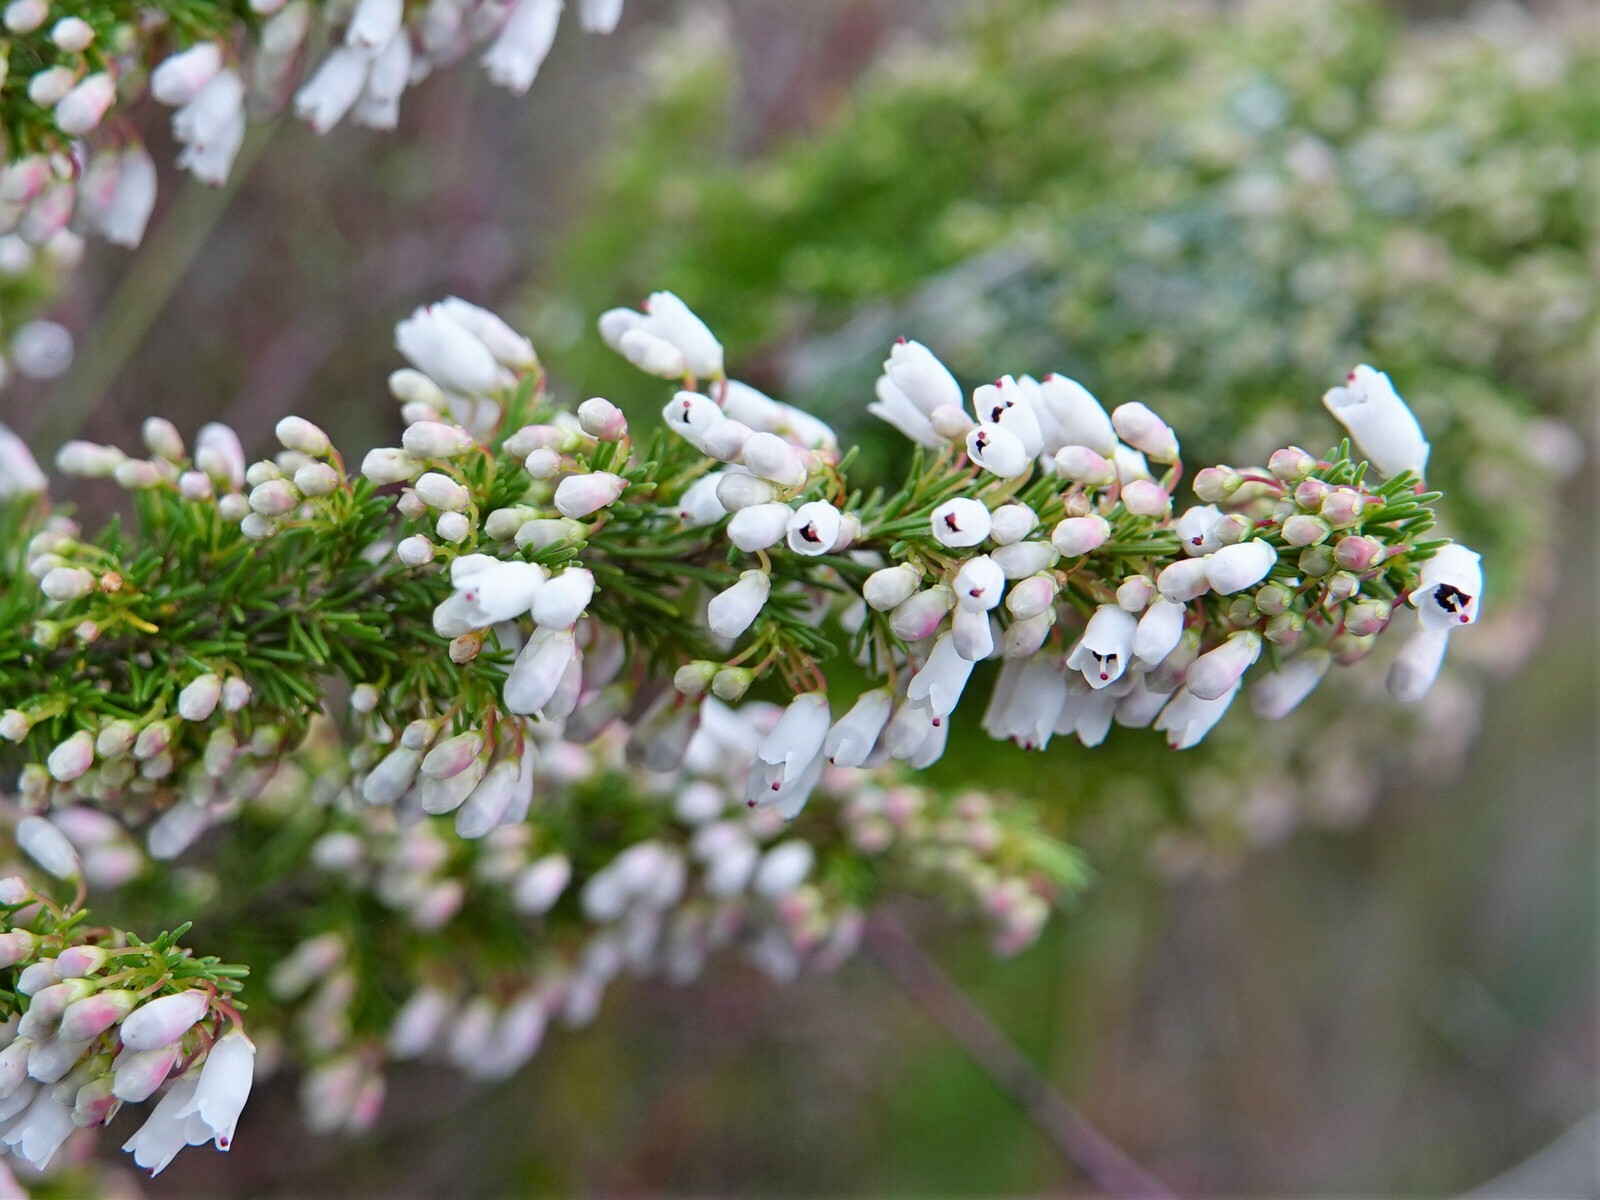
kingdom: Plantae
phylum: Tracheophyta
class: Magnoliopsida
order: Ericales
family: Ericaceae
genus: Erica
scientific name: Erica lusitanica
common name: Spanish heath
